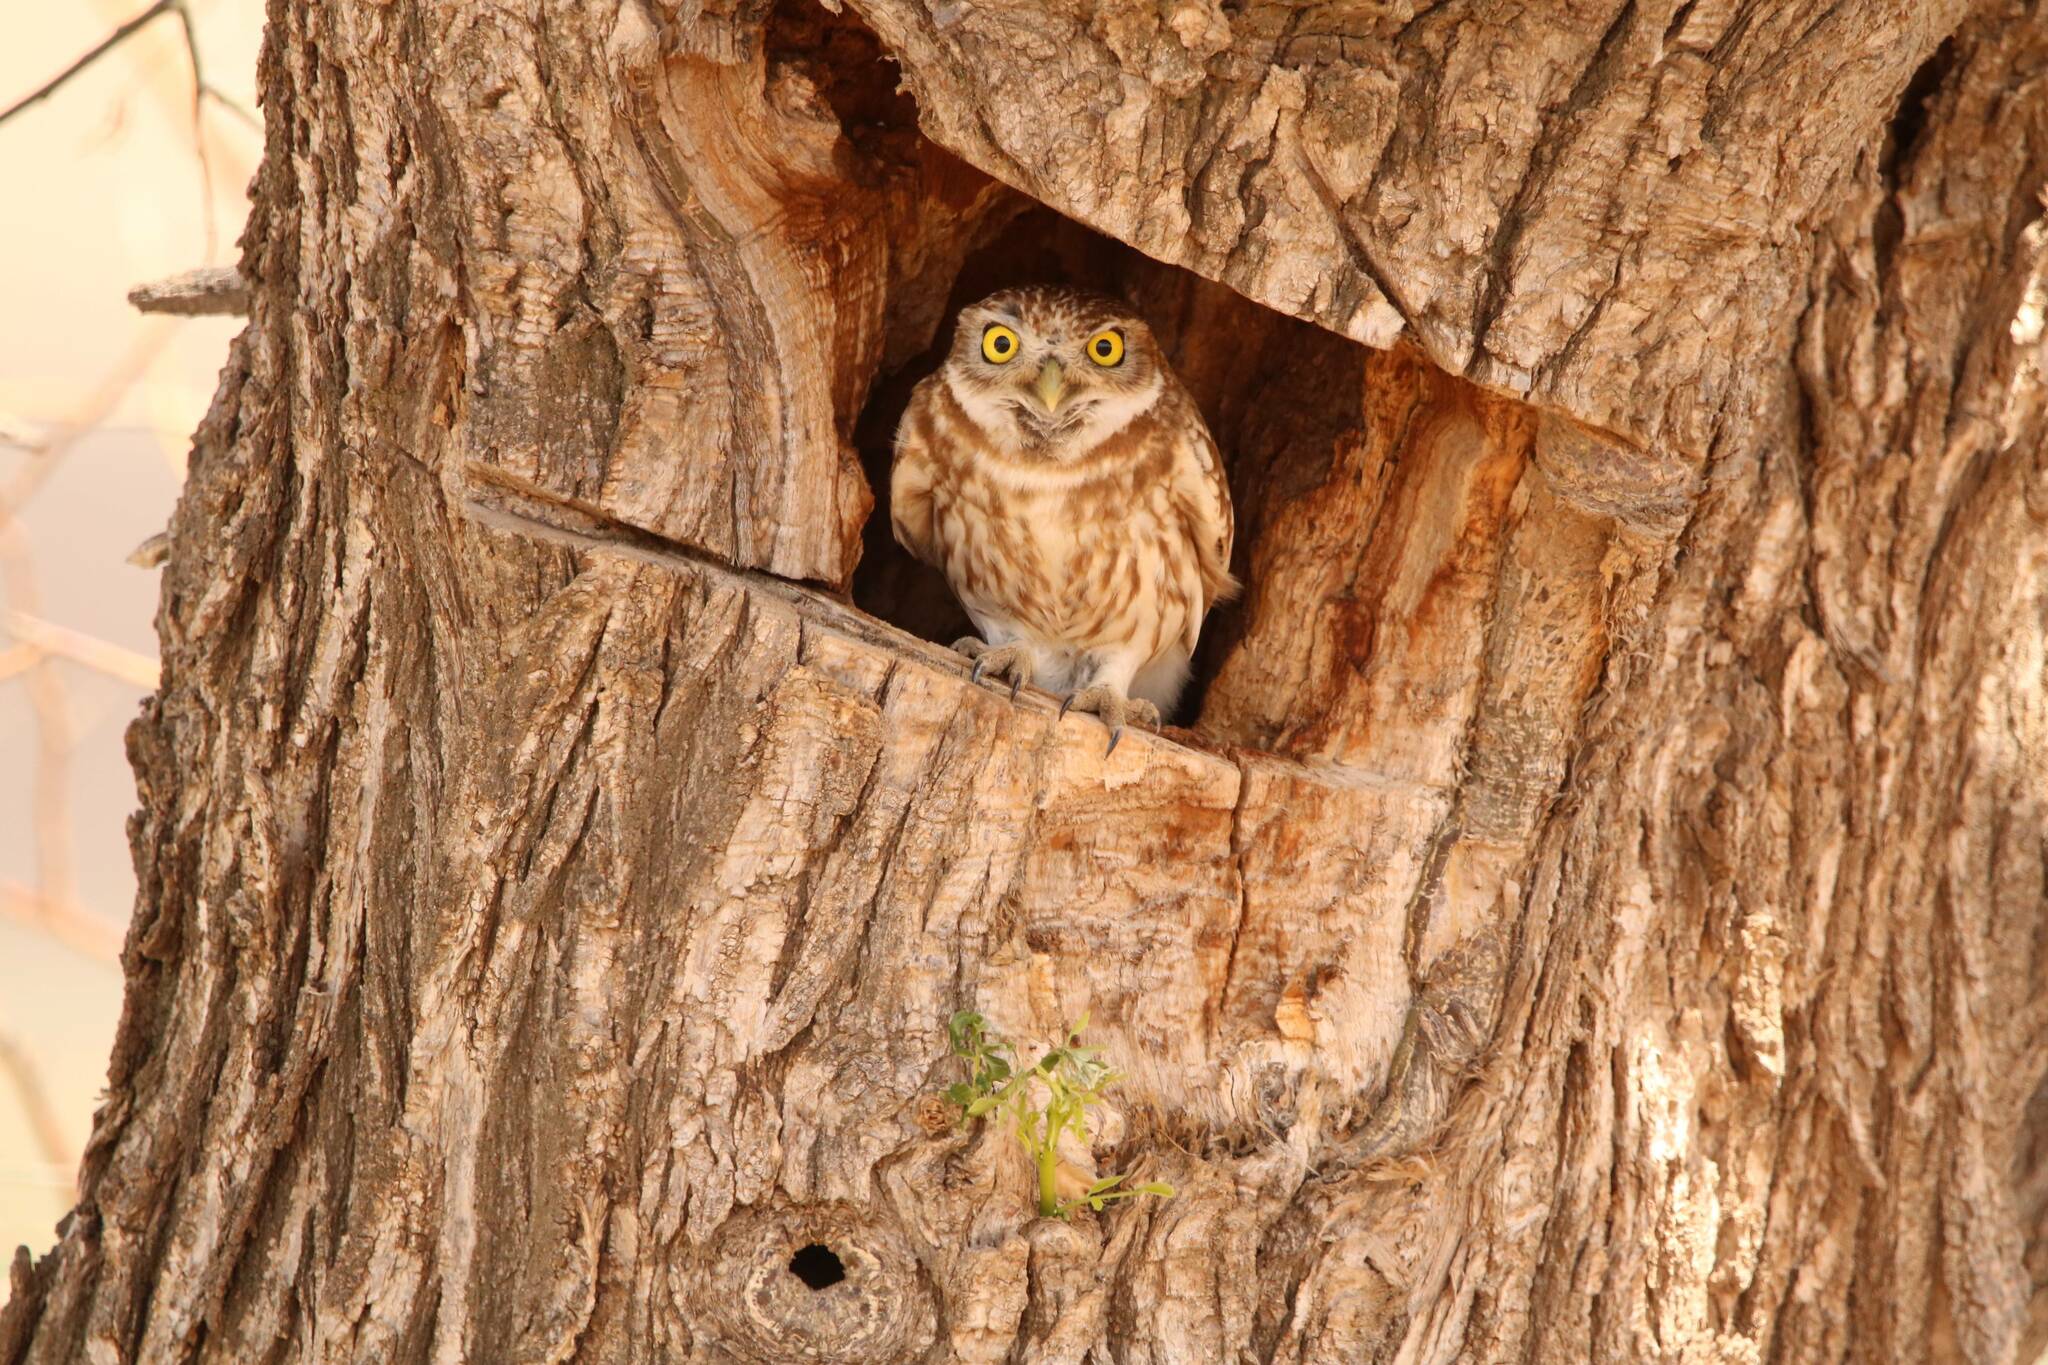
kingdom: Animalia
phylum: Chordata
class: Aves
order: Strigiformes
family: Strigidae
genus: Athene
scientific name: Athene noctua
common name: Little owl
